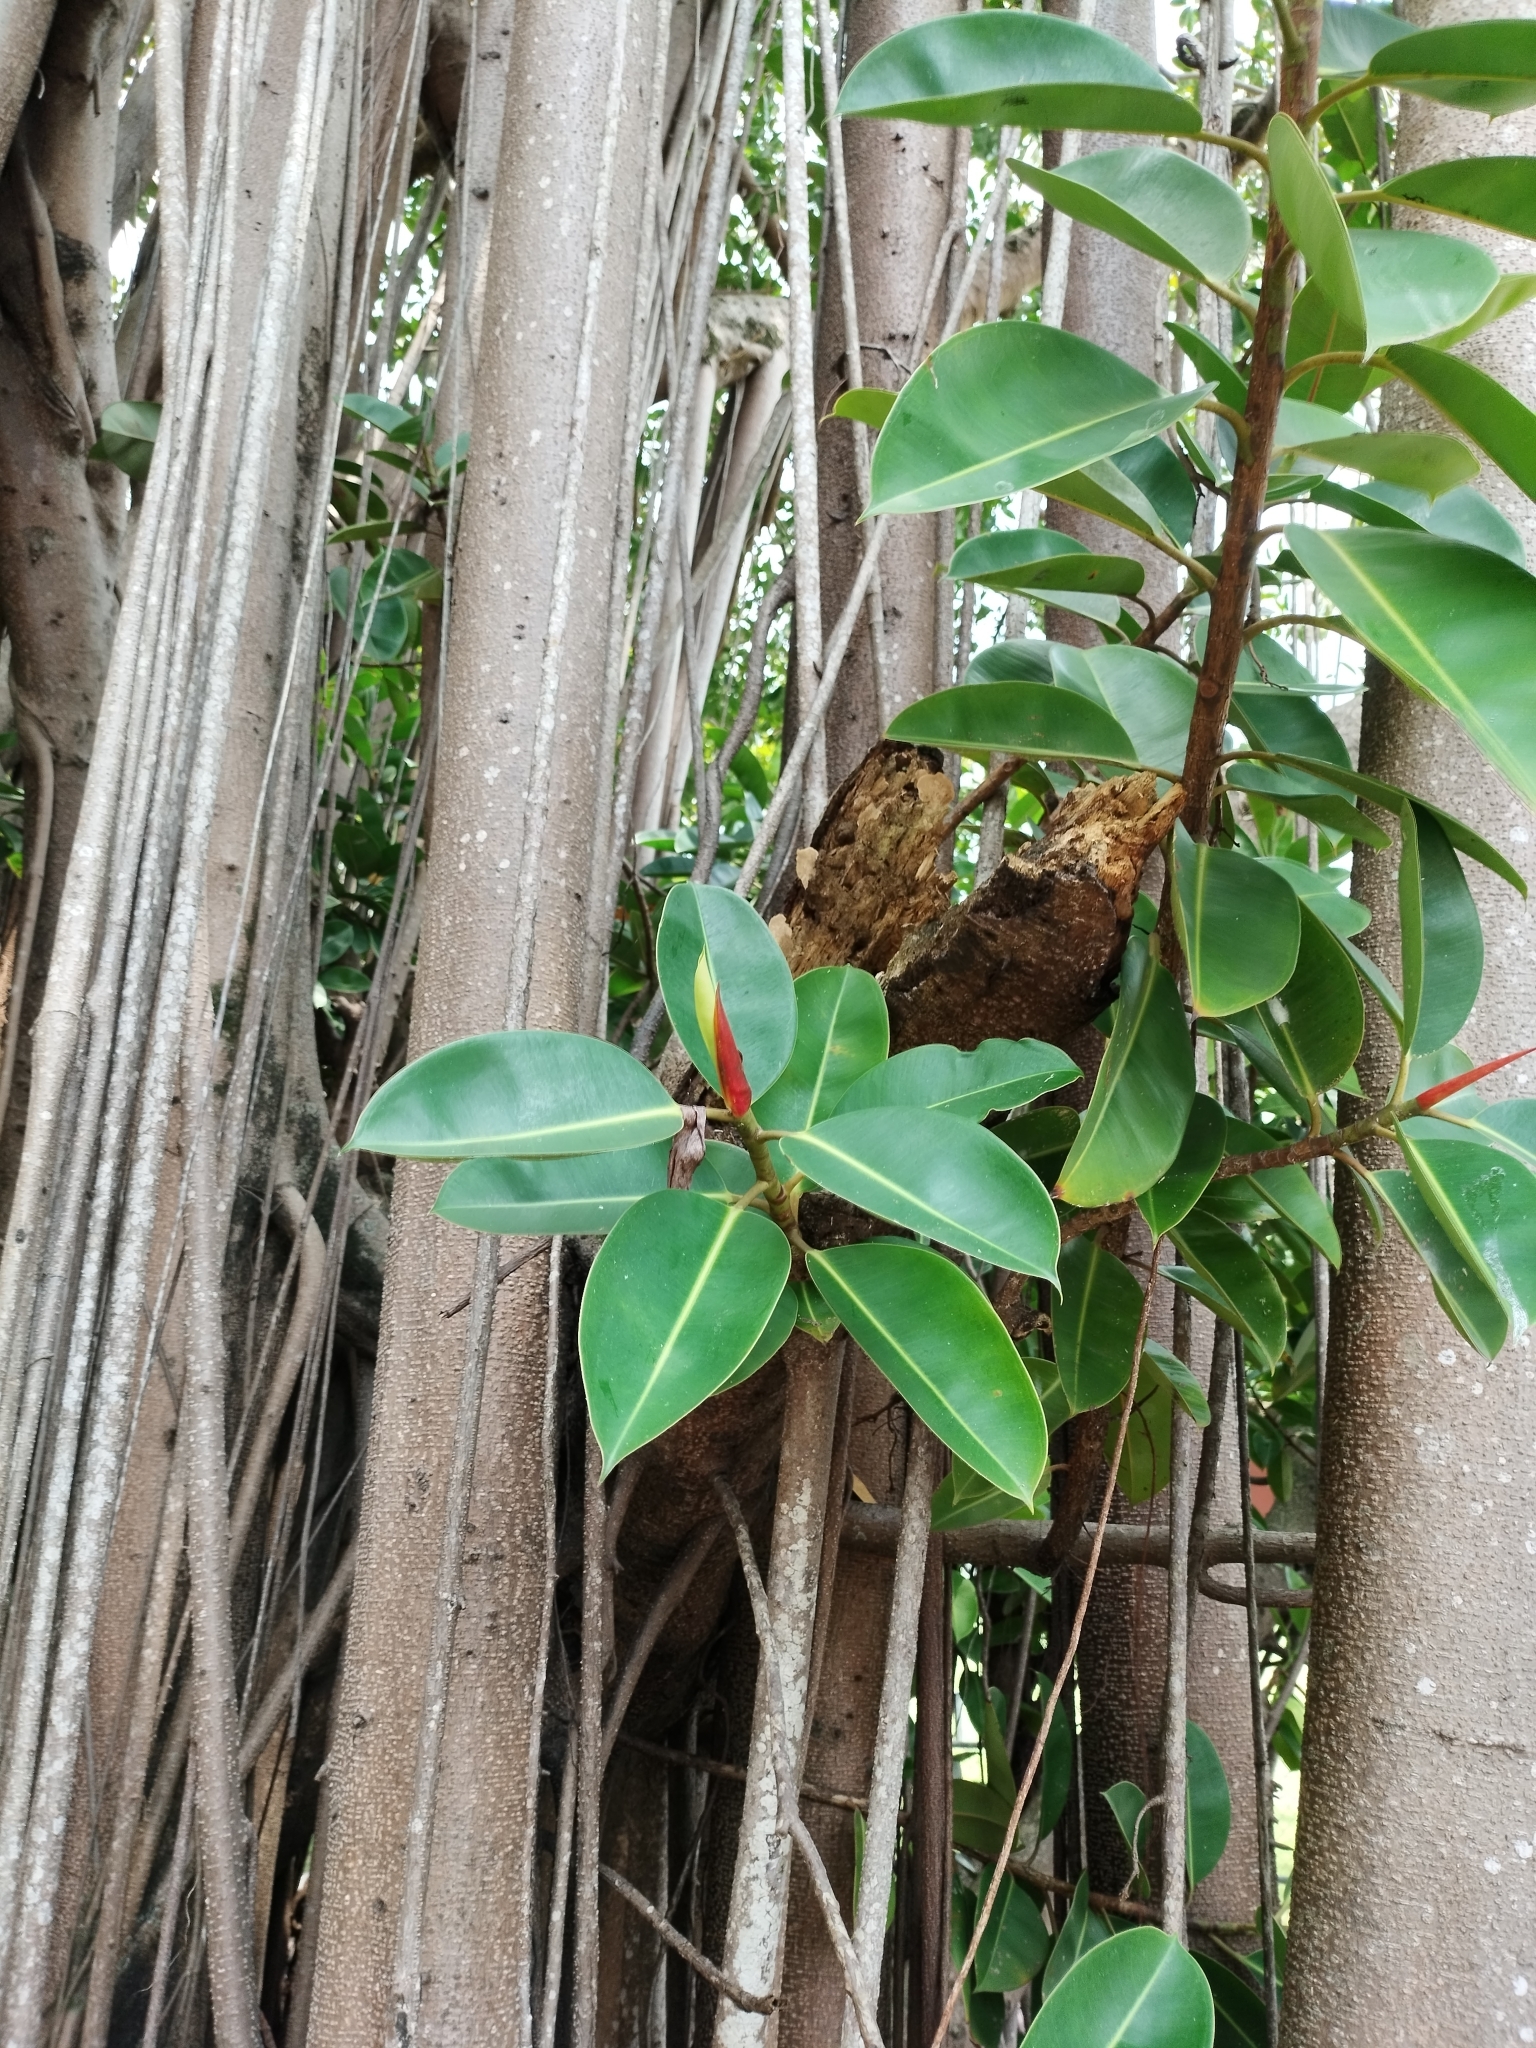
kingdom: Plantae
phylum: Tracheophyta
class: Magnoliopsida
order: Rosales
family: Moraceae
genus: Ficus
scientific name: Ficus elastica
